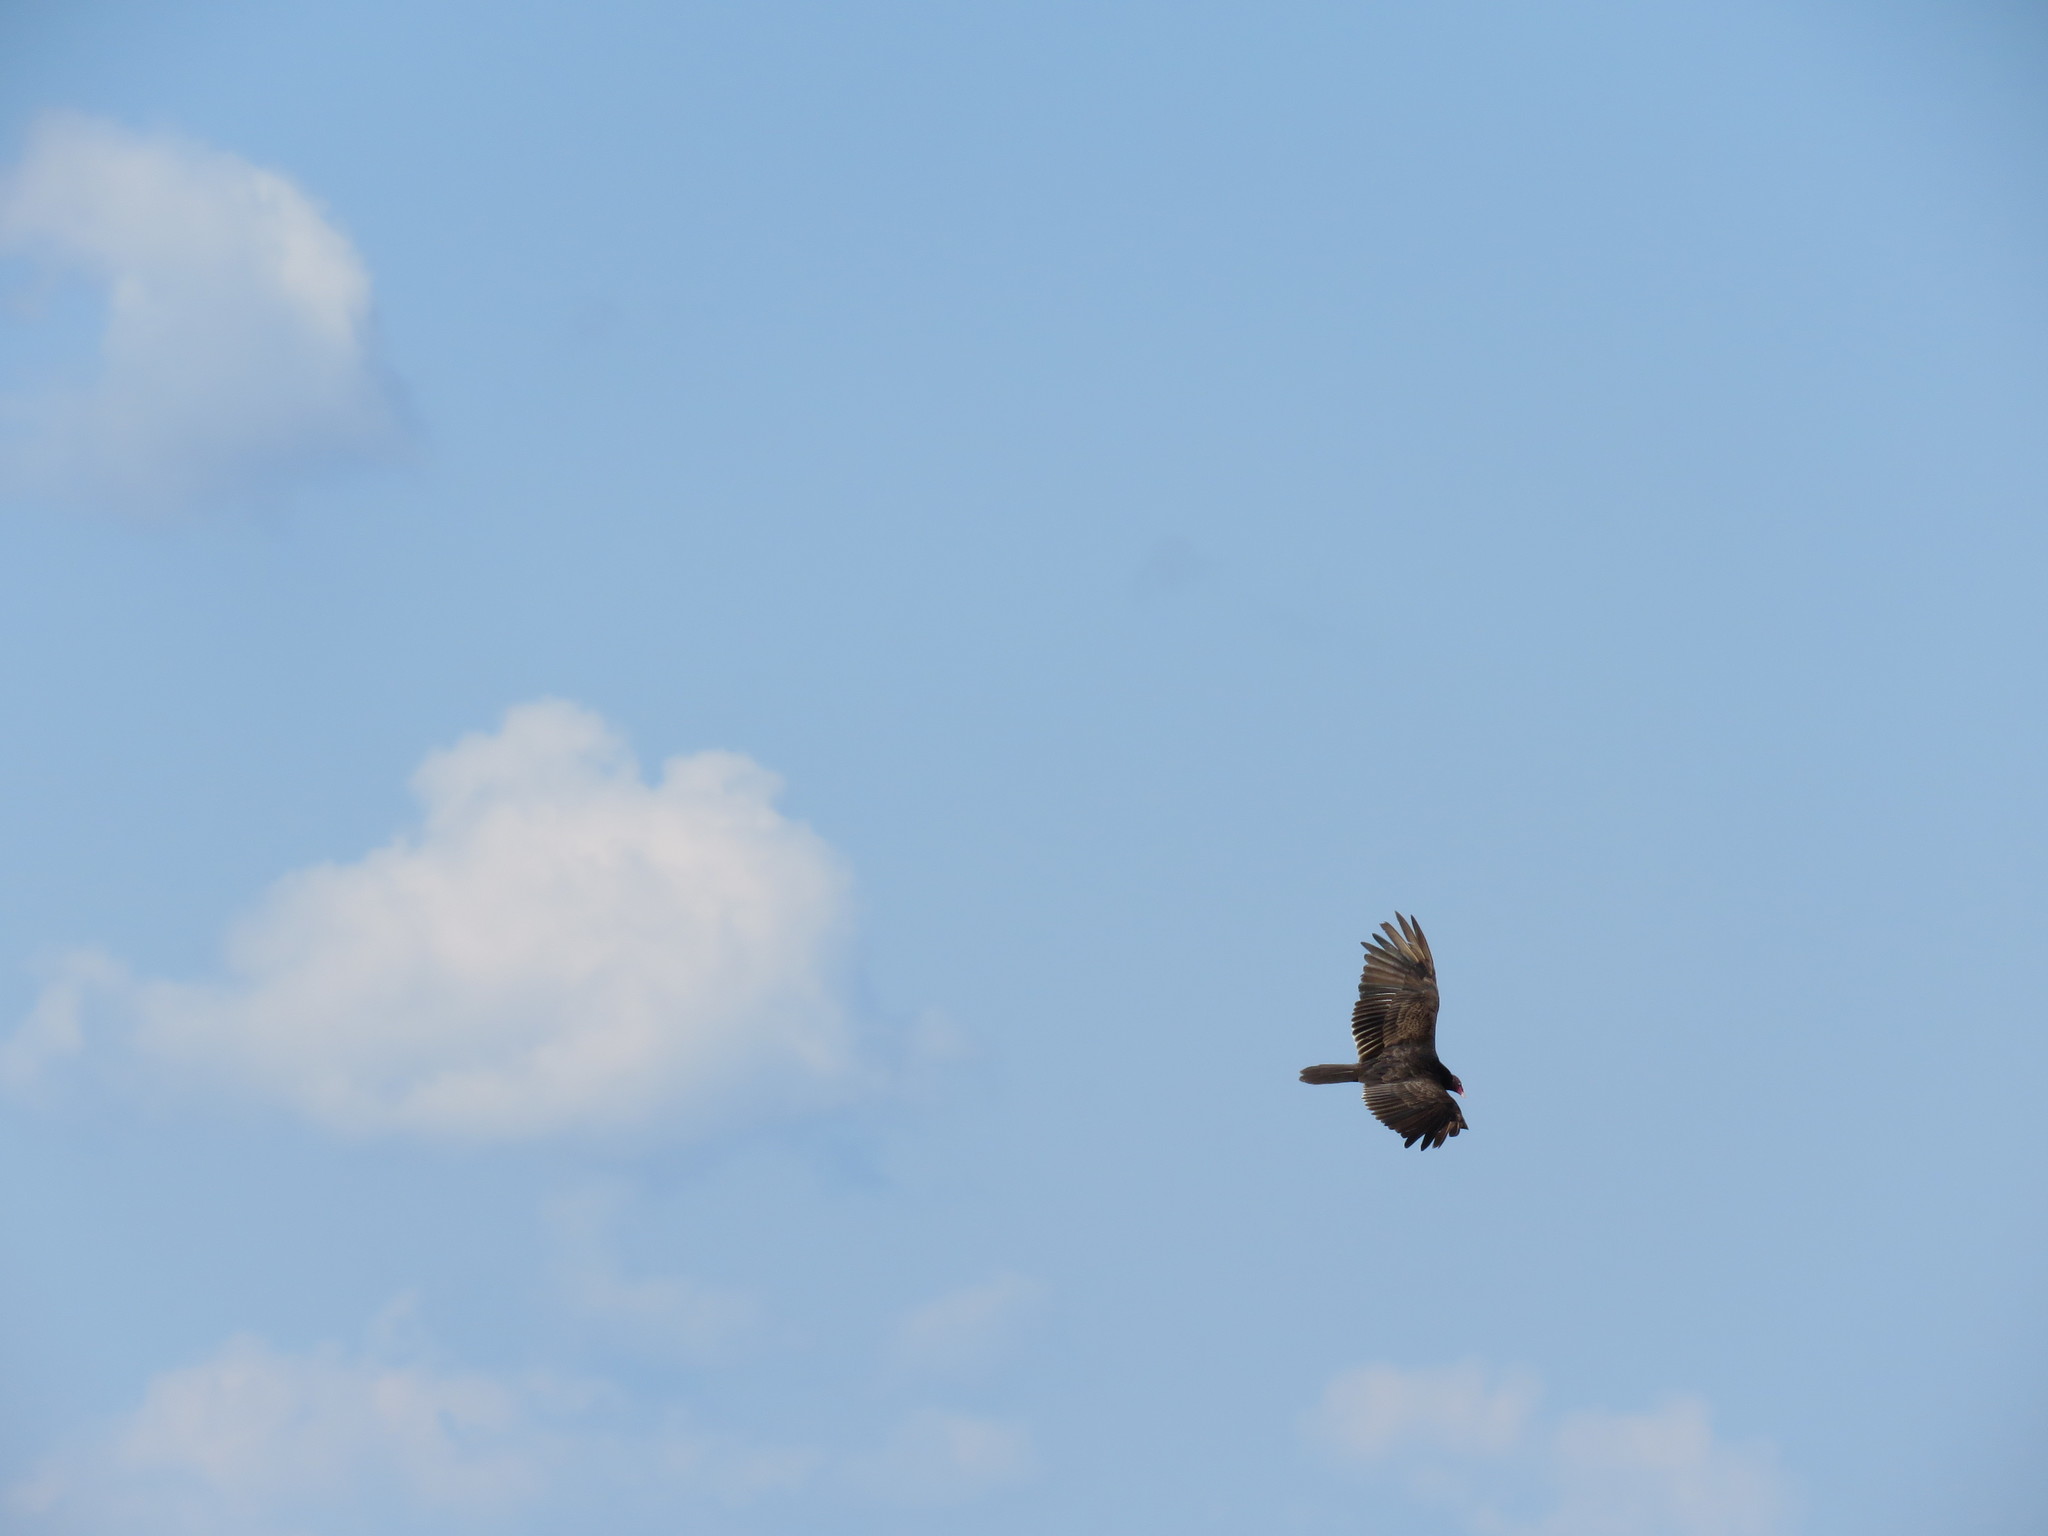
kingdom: Animalia
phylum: Chordata
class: Aves
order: Accipitriformes
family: Cathartidae
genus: Cathartes
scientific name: Cathartes aura
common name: Turkey vulture
